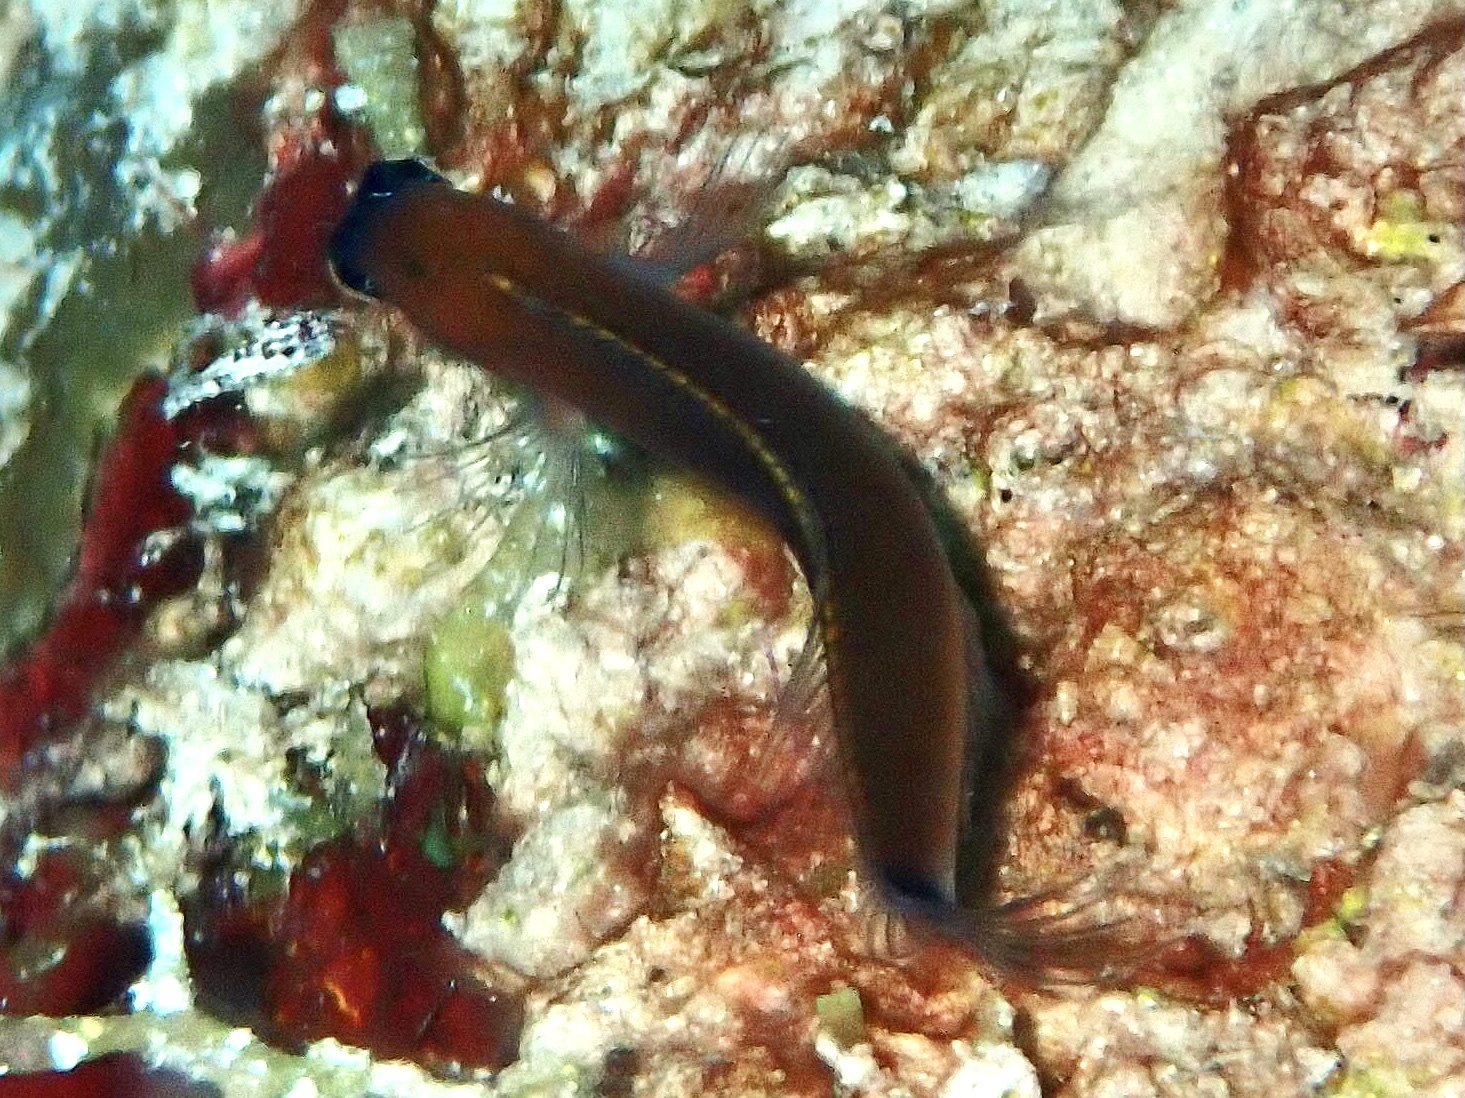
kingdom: Animalia
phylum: Chordata
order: Perciformes
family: Blenniidae
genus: Ecsenius
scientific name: Ecsenius aroni
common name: Aron's blenny
